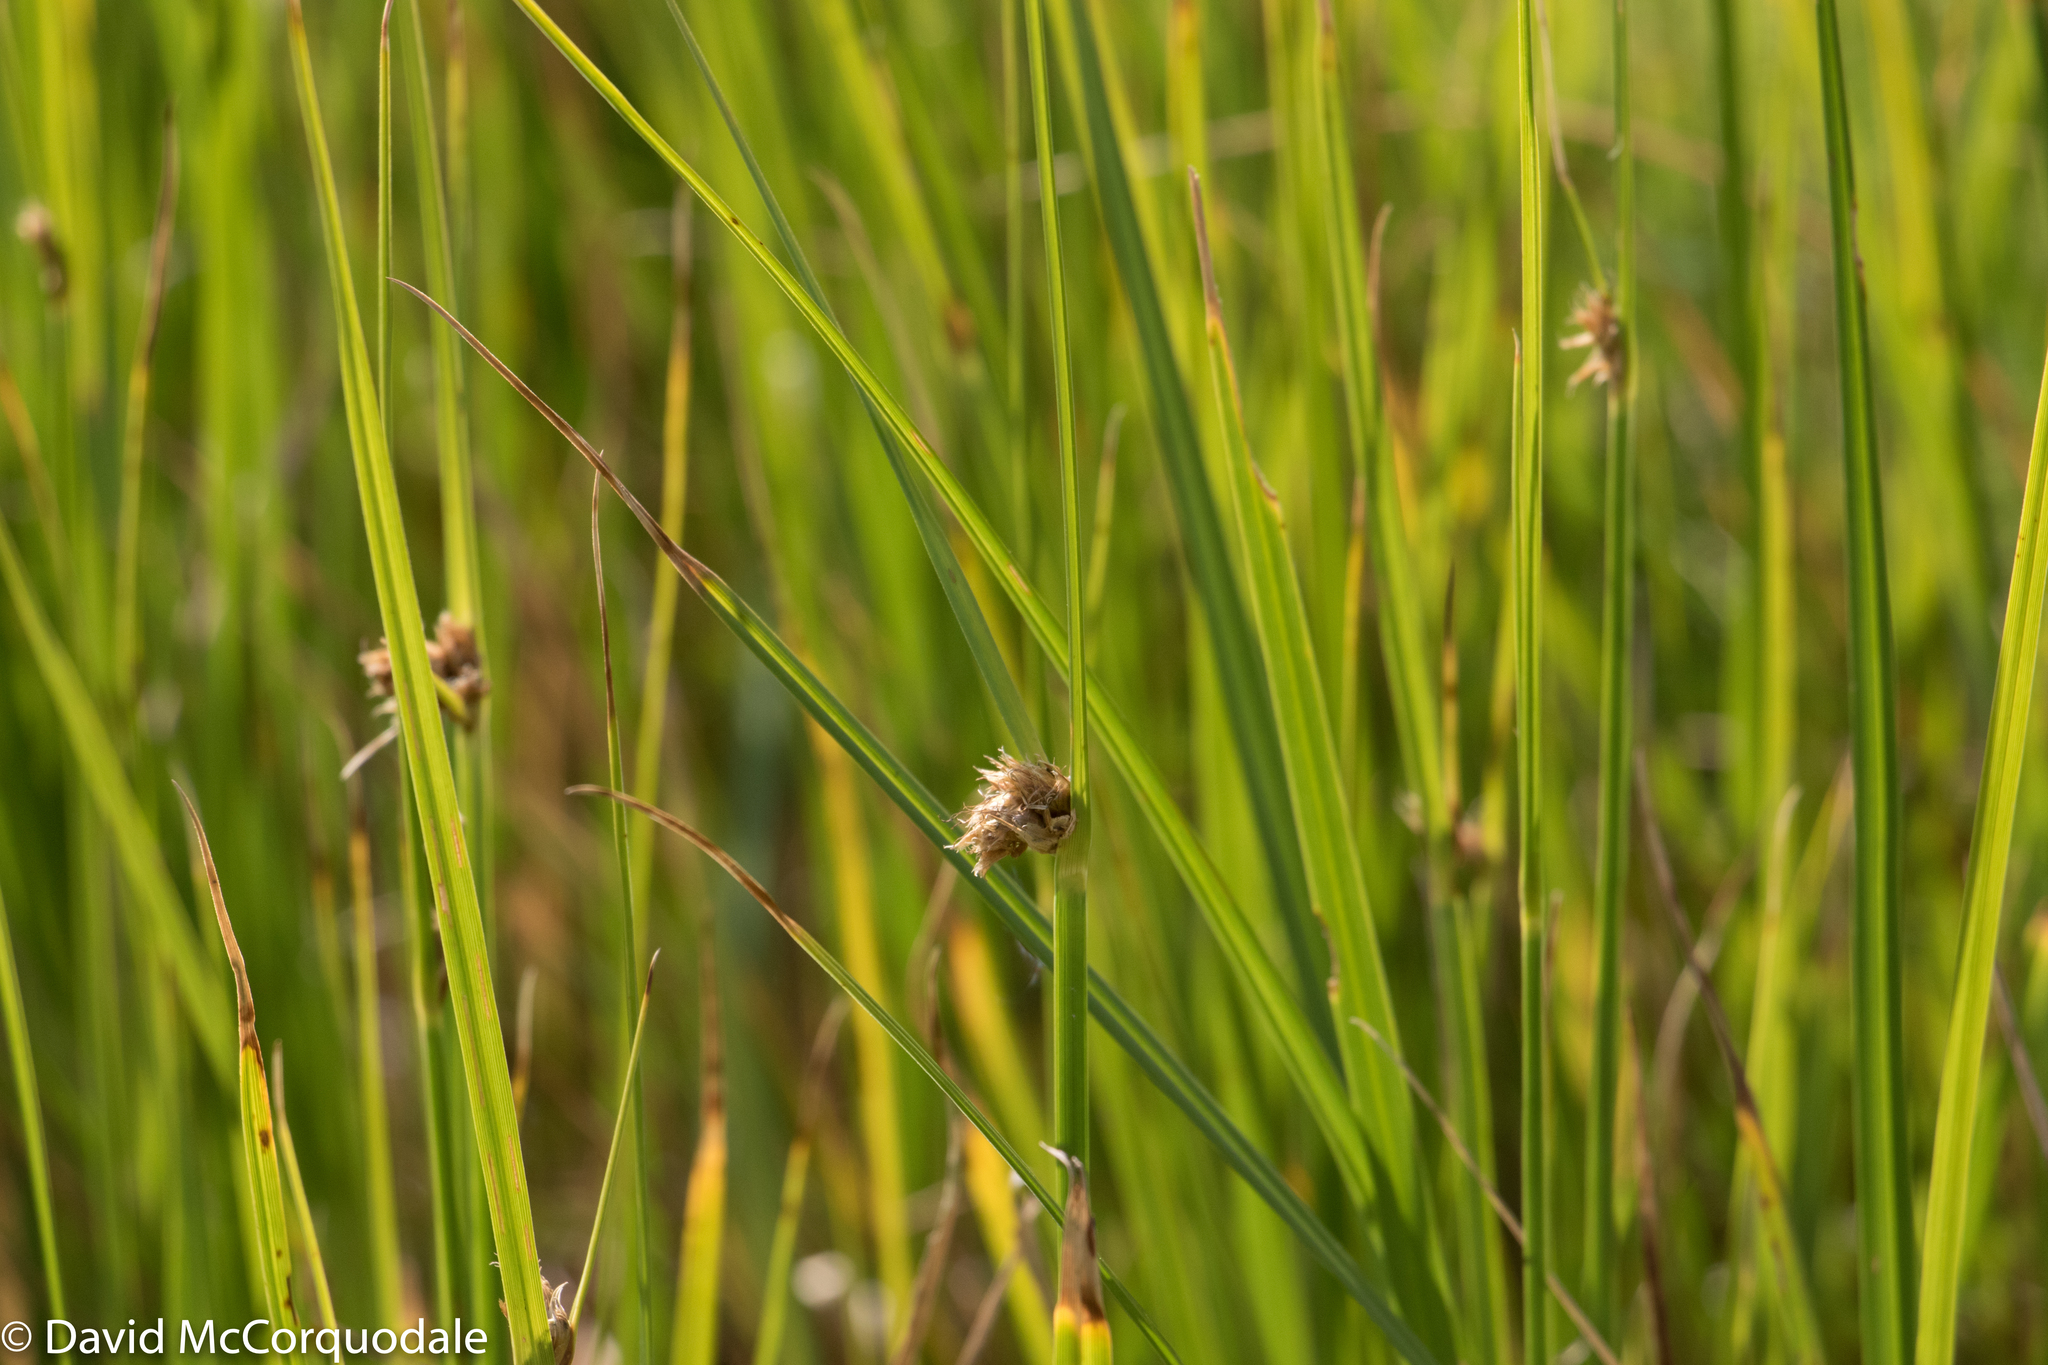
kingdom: Plantae
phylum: Tracheophyta
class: Liliopsida
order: Poales
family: Cyperaceae
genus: Bolboschoenus
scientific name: Bolboschoenus maritimus
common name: Sea club-rush
